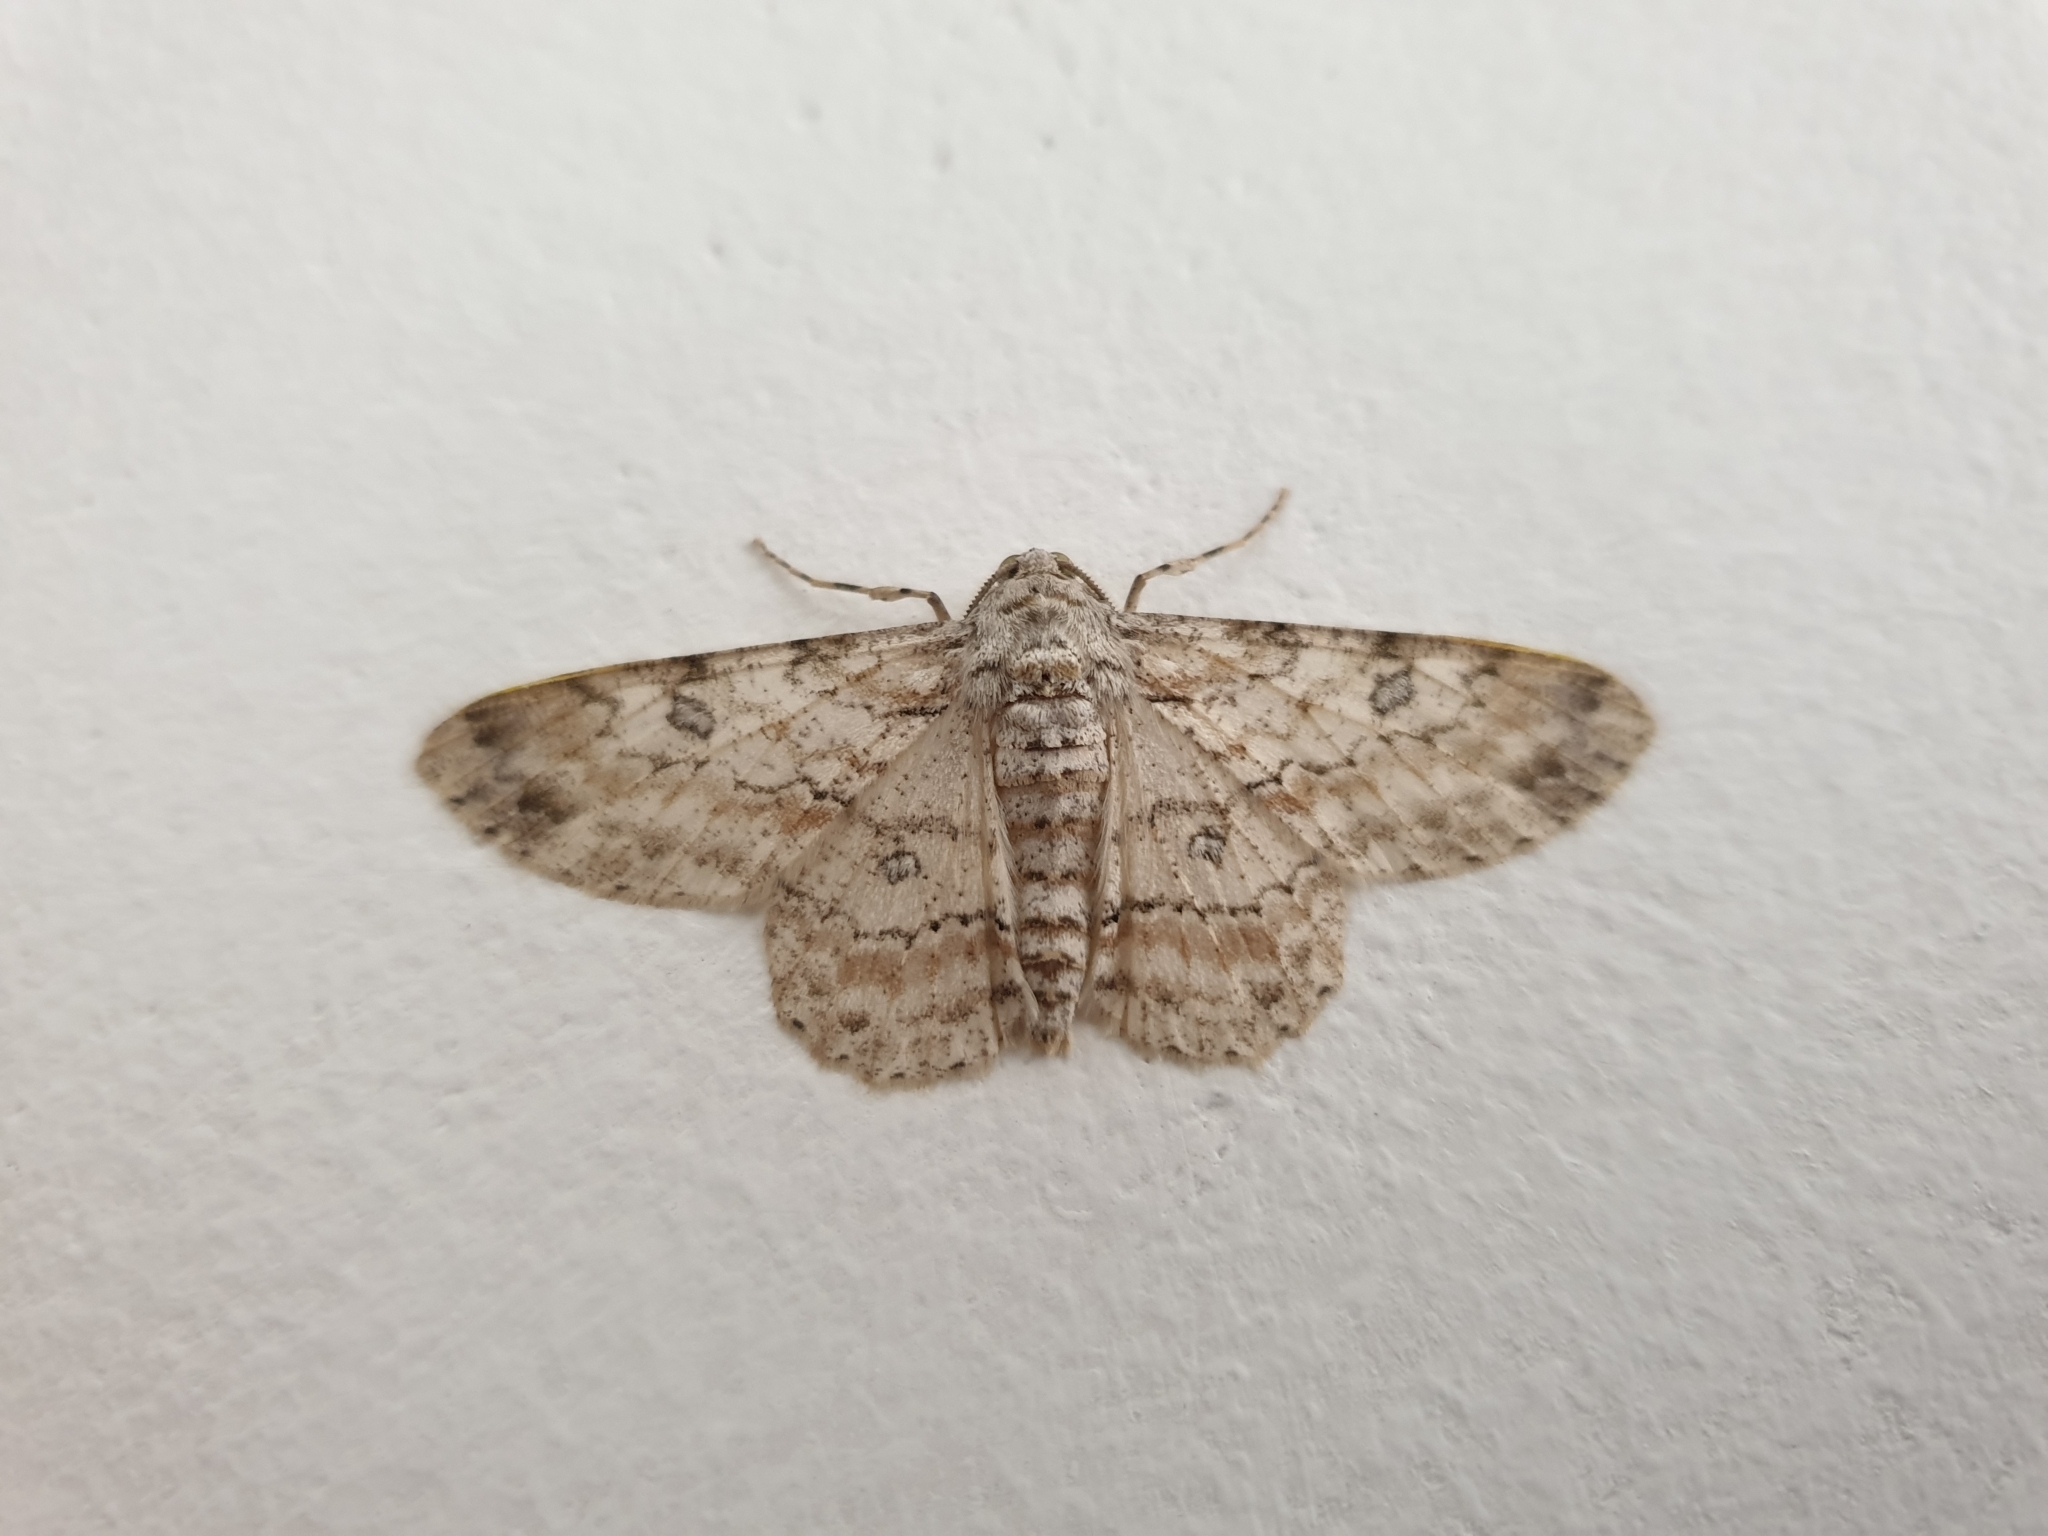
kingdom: Animalia
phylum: Arthropoda
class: Insecta
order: Lepidoptera
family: Geometridae
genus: Cleora
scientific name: Cleora alienaria
